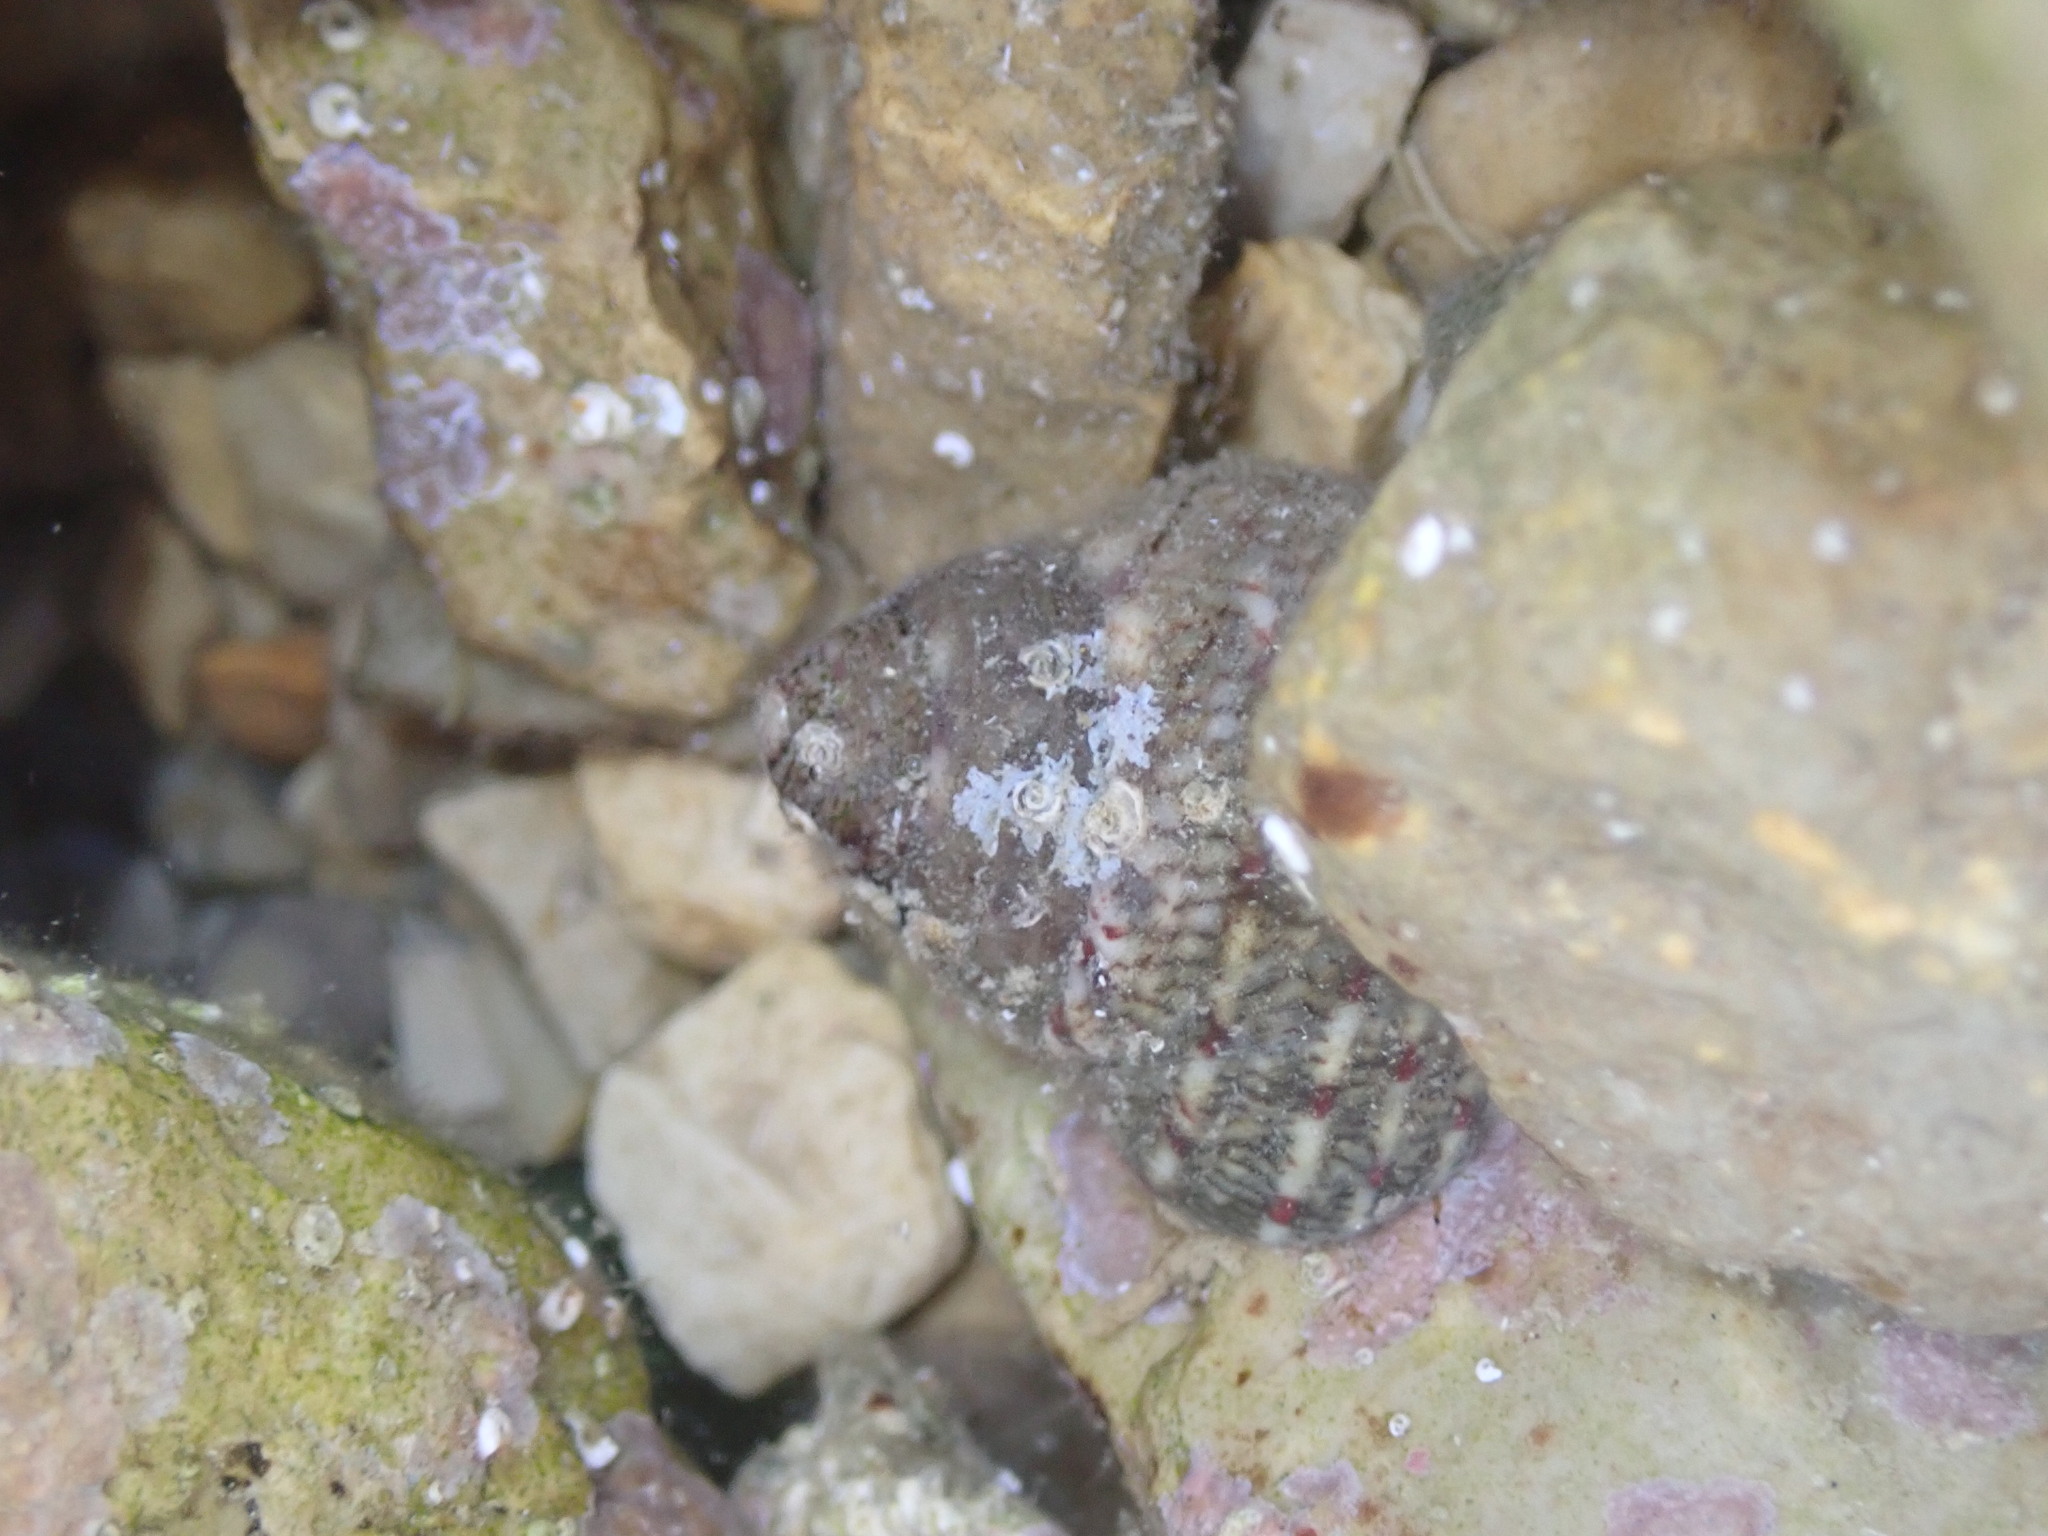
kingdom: Animalia
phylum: Mollusca
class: Gastropoda
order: Trochida
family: Trochidae
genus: Phorcus
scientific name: Phorcus articulatus
